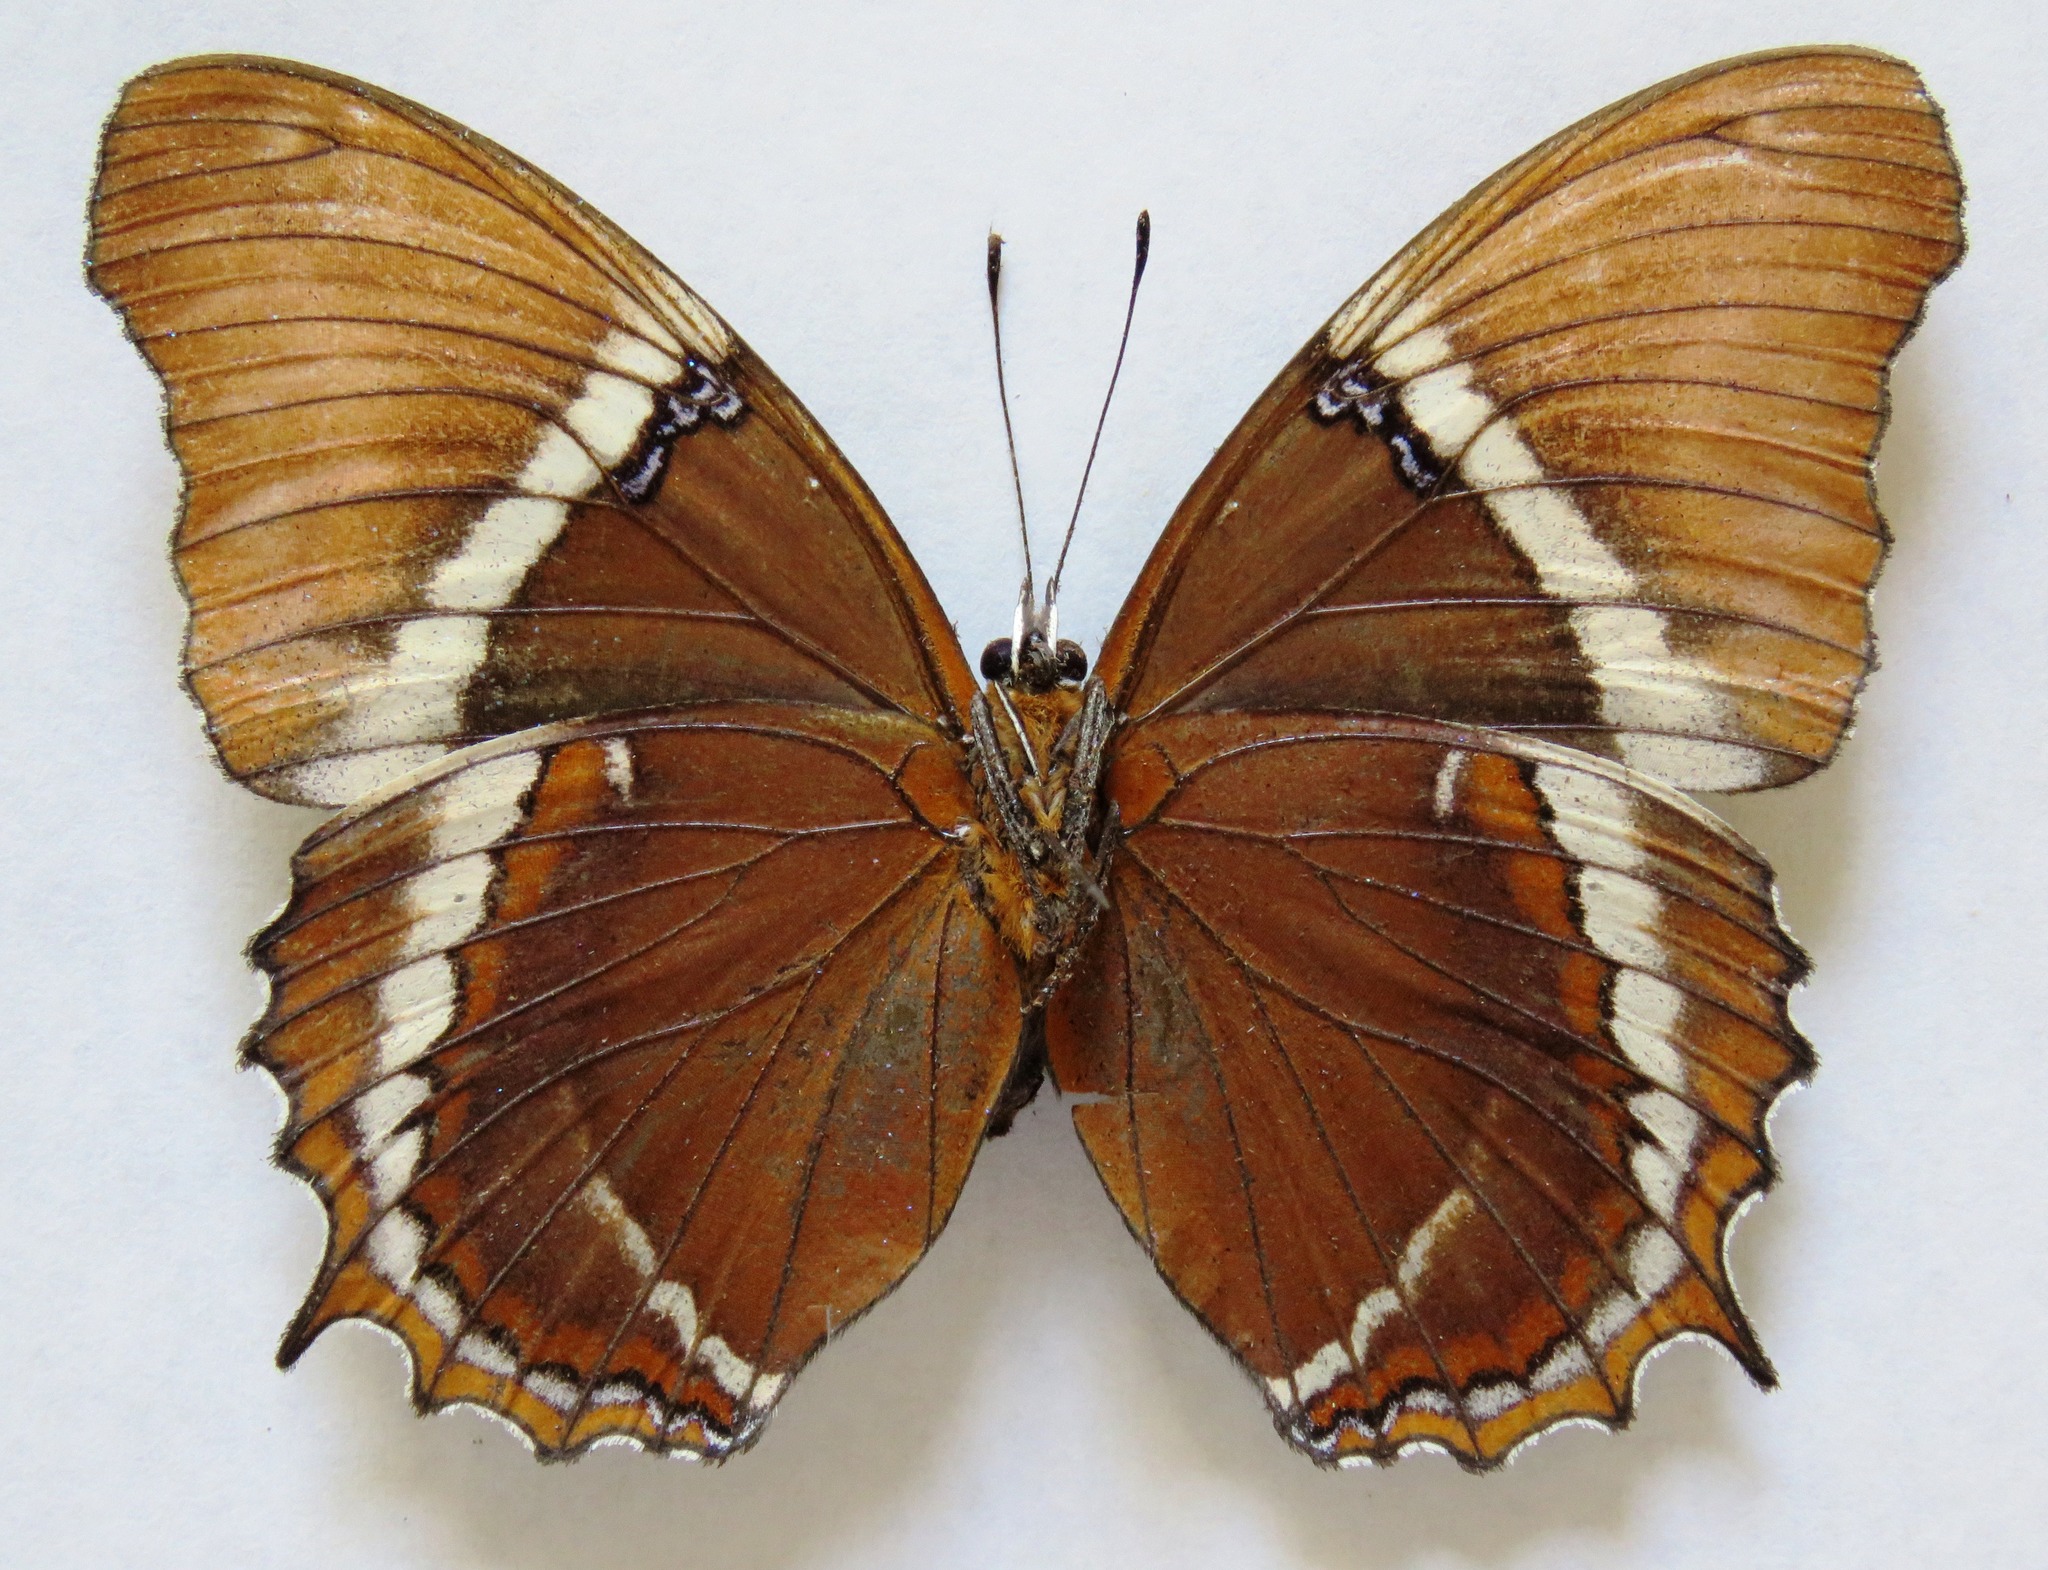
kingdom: Animalia
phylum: Arthropoda
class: Insecta
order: Lepidoptera
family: Nymphalidae
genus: Siproeta
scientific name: Siproeta epaphus
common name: Rusty-tipped page
